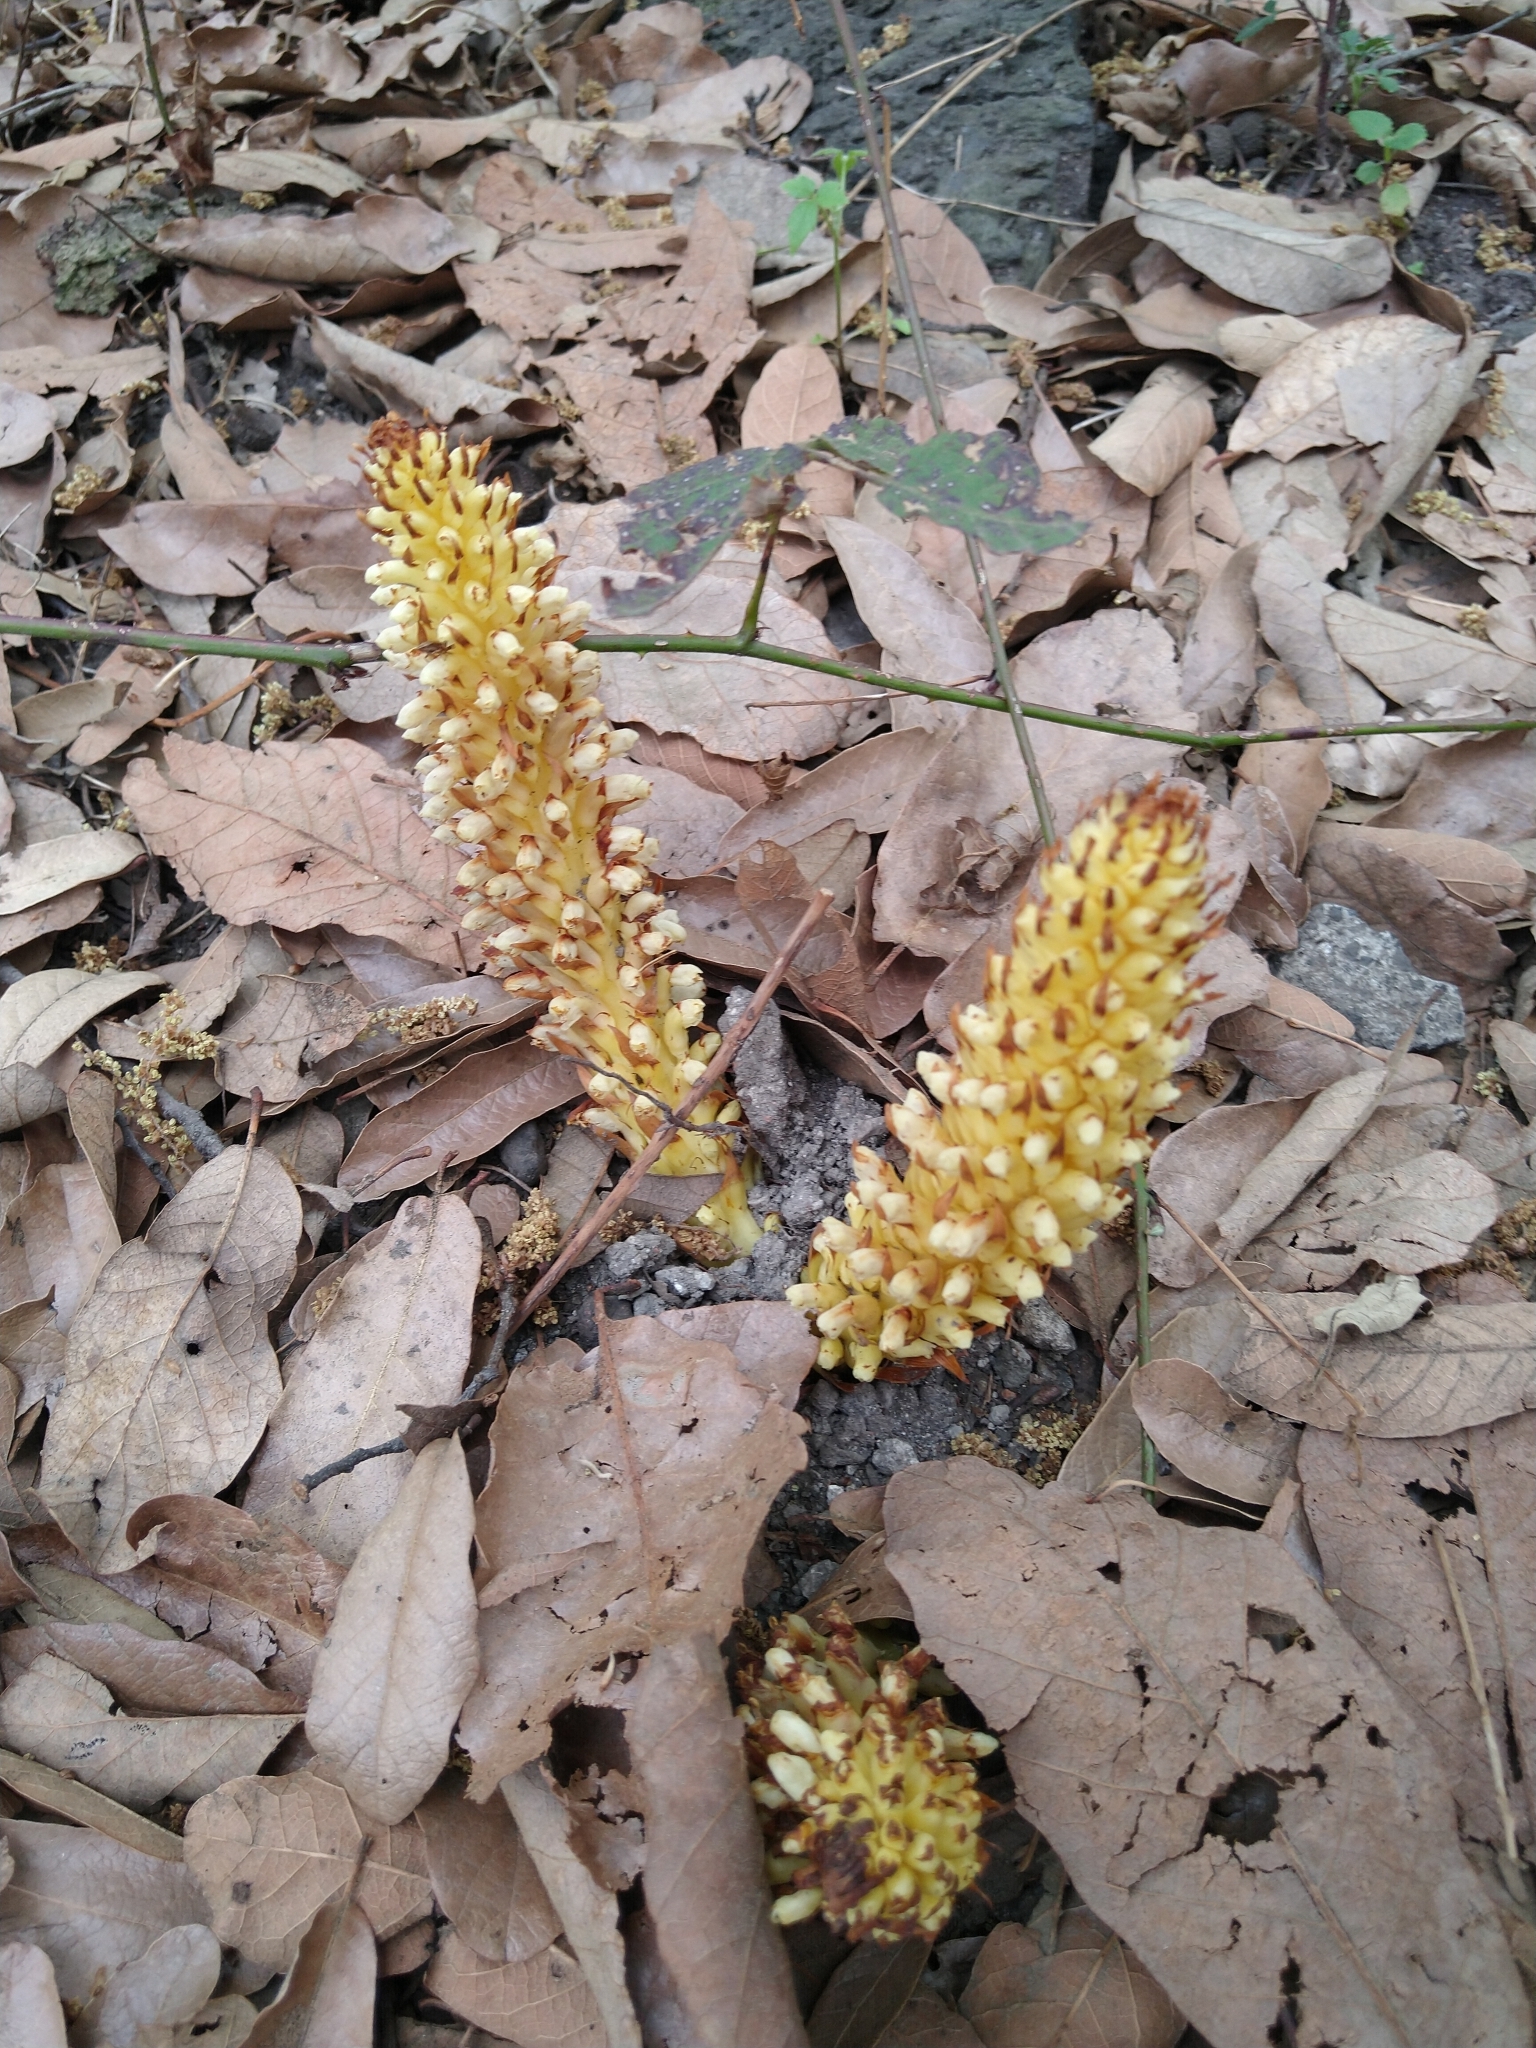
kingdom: Plantae
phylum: Tracheophyta
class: Magnoliopsida
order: Lamiales
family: Orobanchaceae
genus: Conopholis
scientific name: Conopholis alpina
